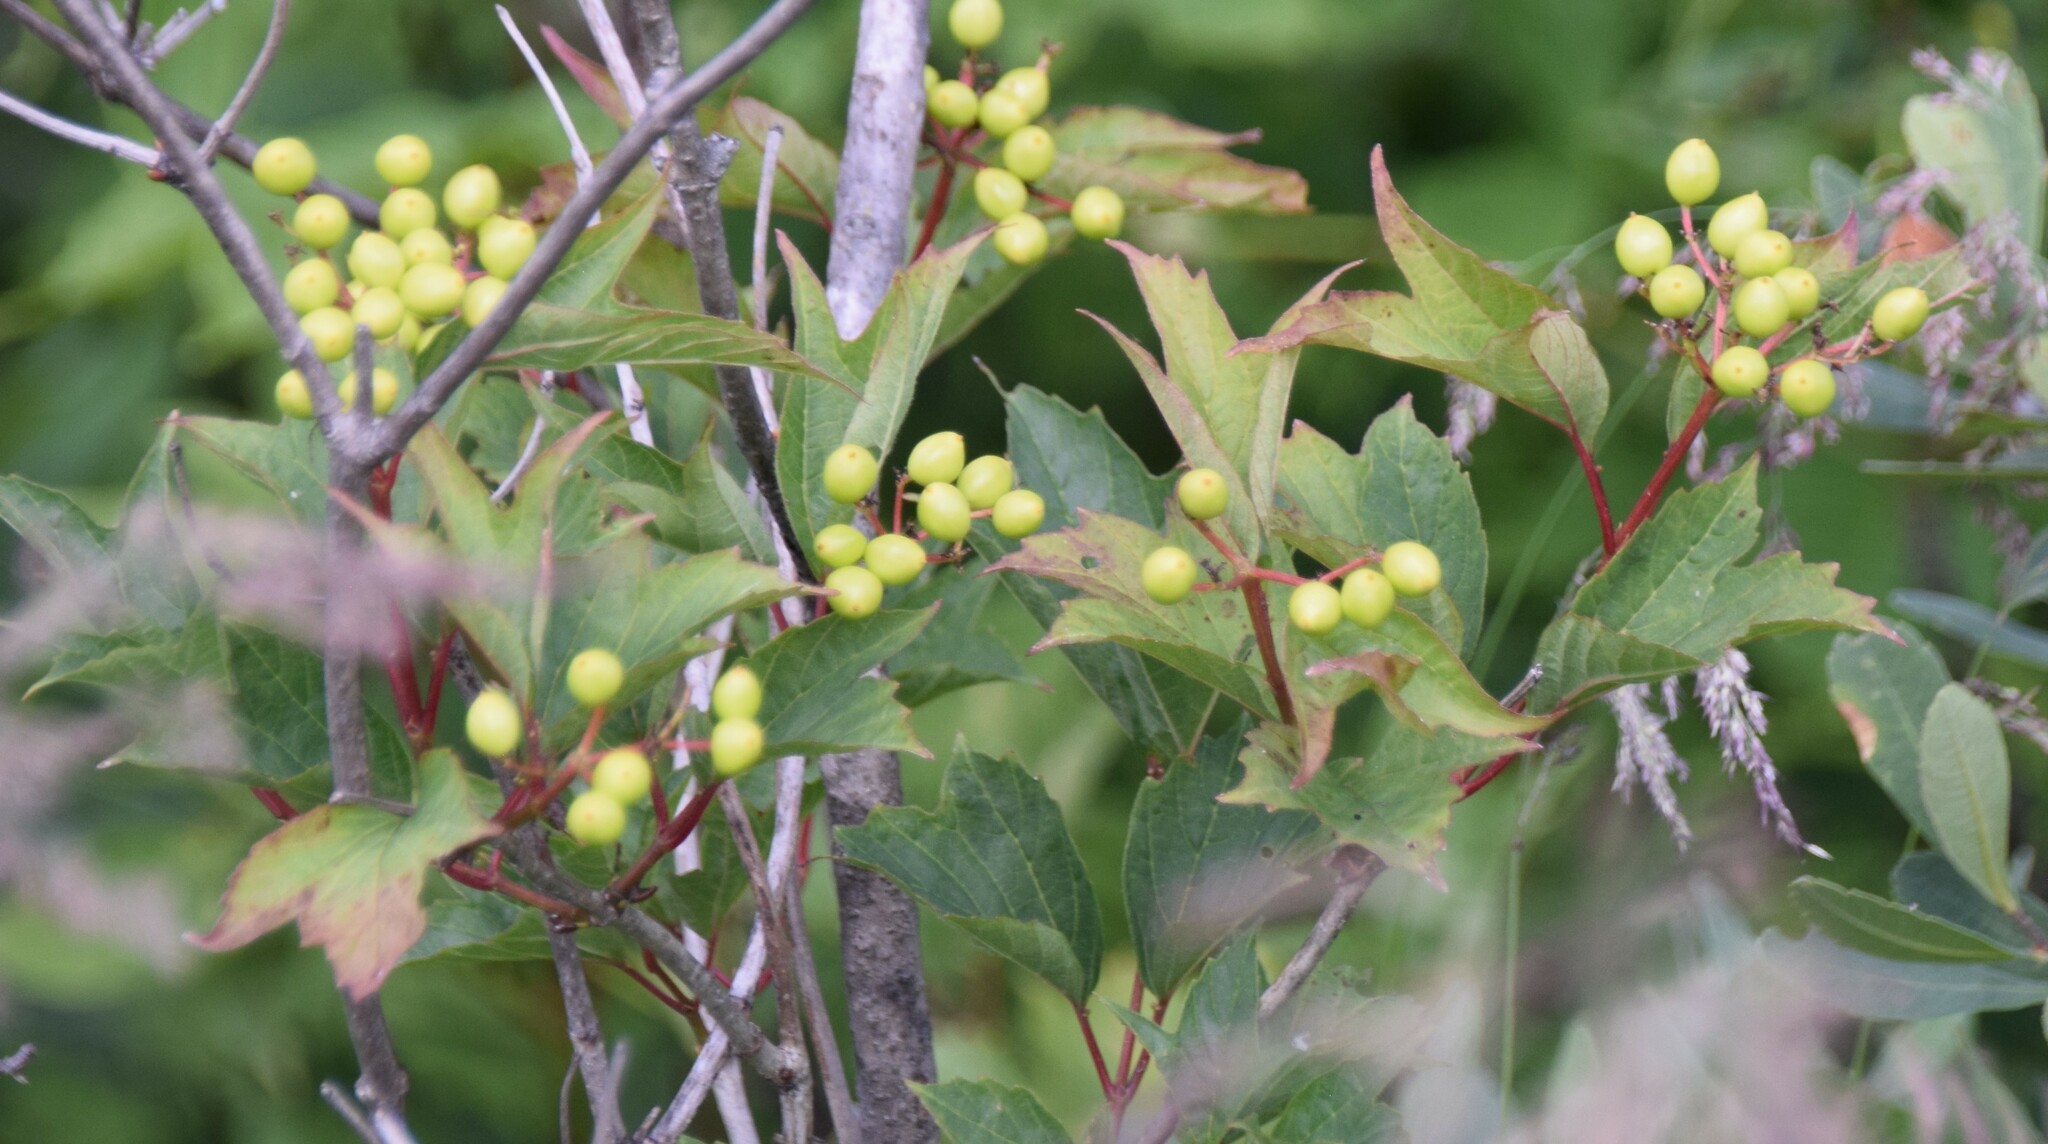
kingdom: Plantae
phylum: Tracheophyta
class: Magnoliopsida
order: Dipsacales
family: Viburnaceae
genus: Viburnum
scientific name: Viburnum trilobum
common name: American cranberrybush
